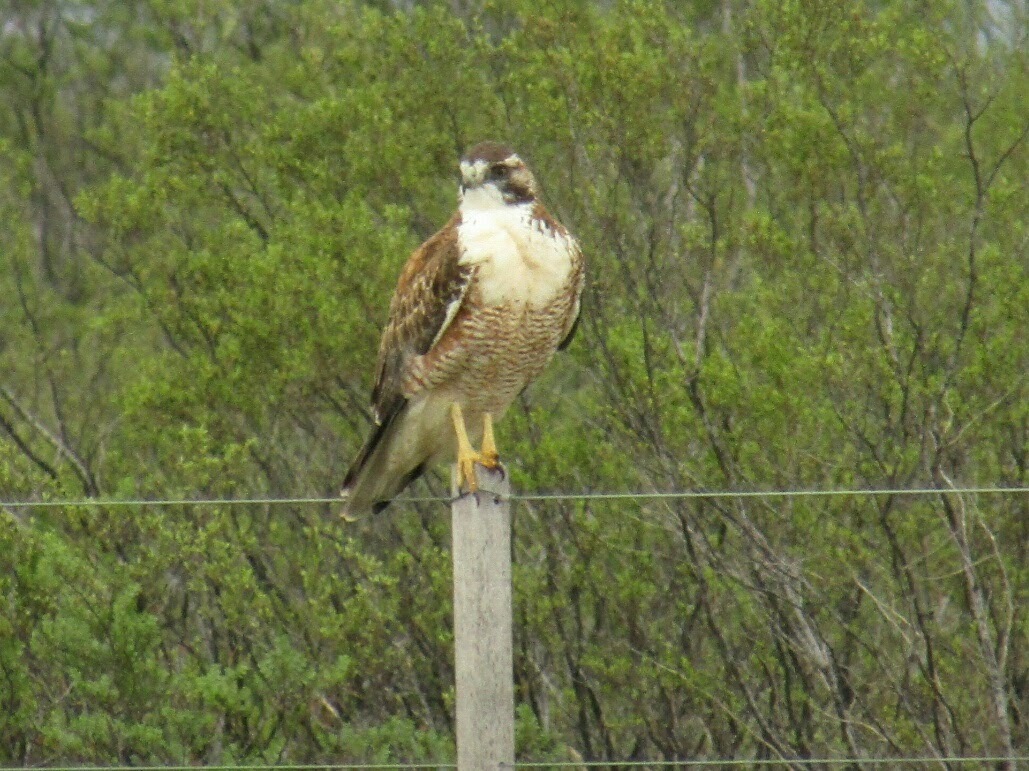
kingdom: Animalia
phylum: Chordata
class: Aves
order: Accipitriformes
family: Accipitridae
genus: Buteo
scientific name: Buteo polyosoma
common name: Variable hawk
